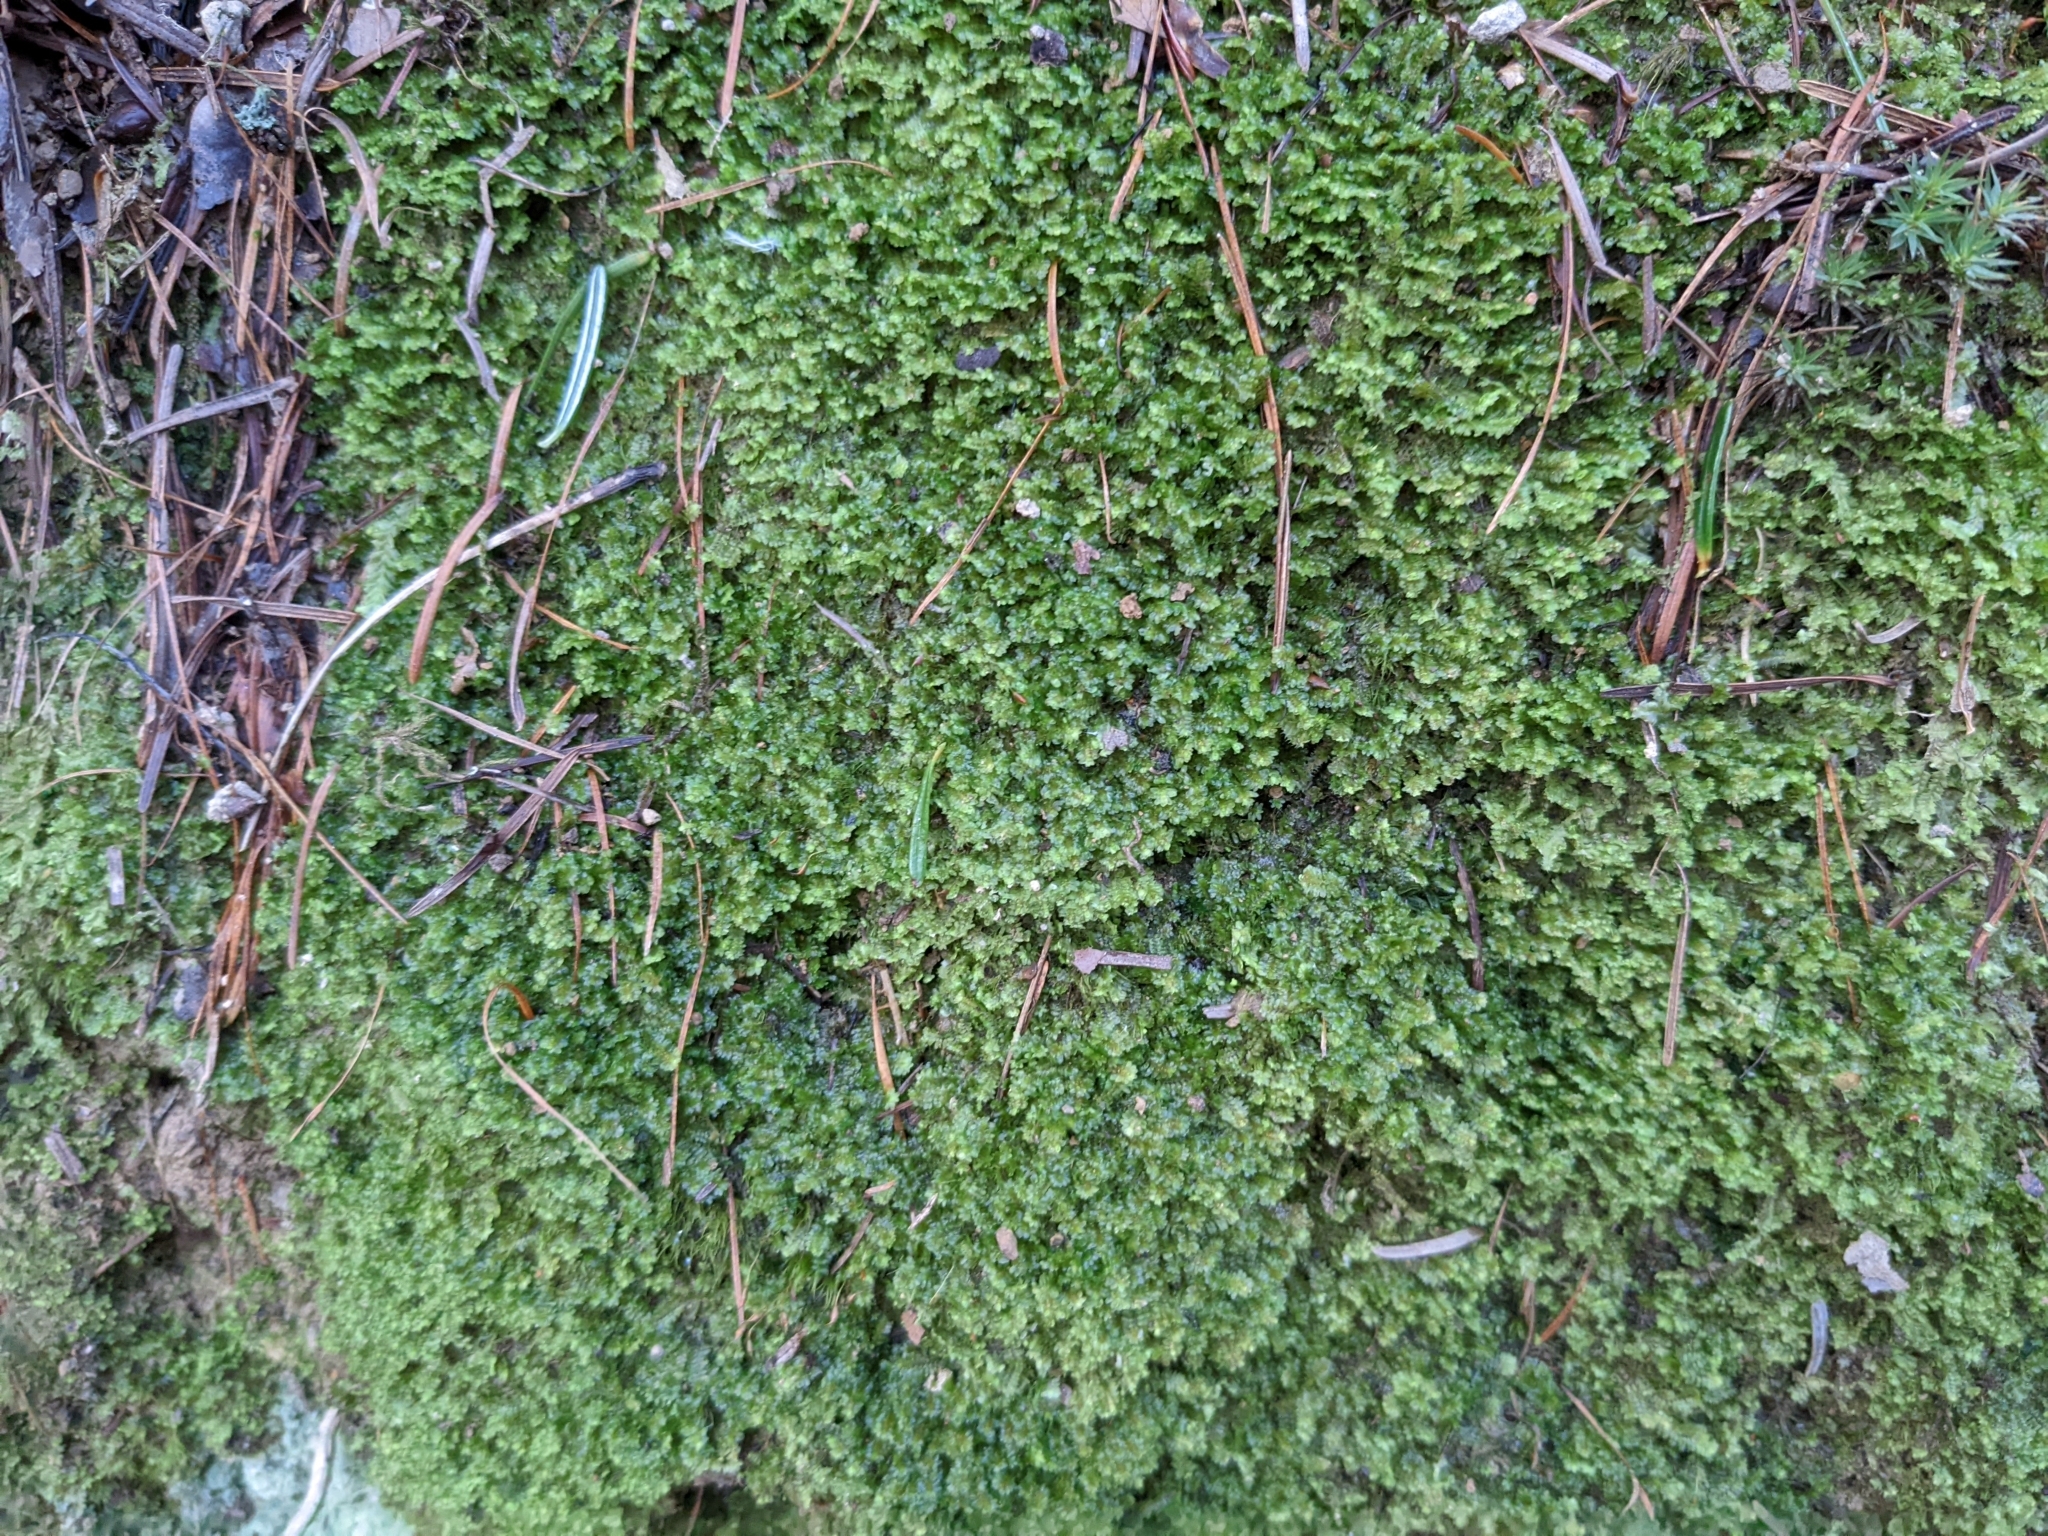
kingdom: Plantae
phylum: Marchantiophyta
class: Jungermanniopsida
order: Jungermanniales
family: Scapaniaceae
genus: Diplophyllum
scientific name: Diplophyllum albicans
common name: White earwort
